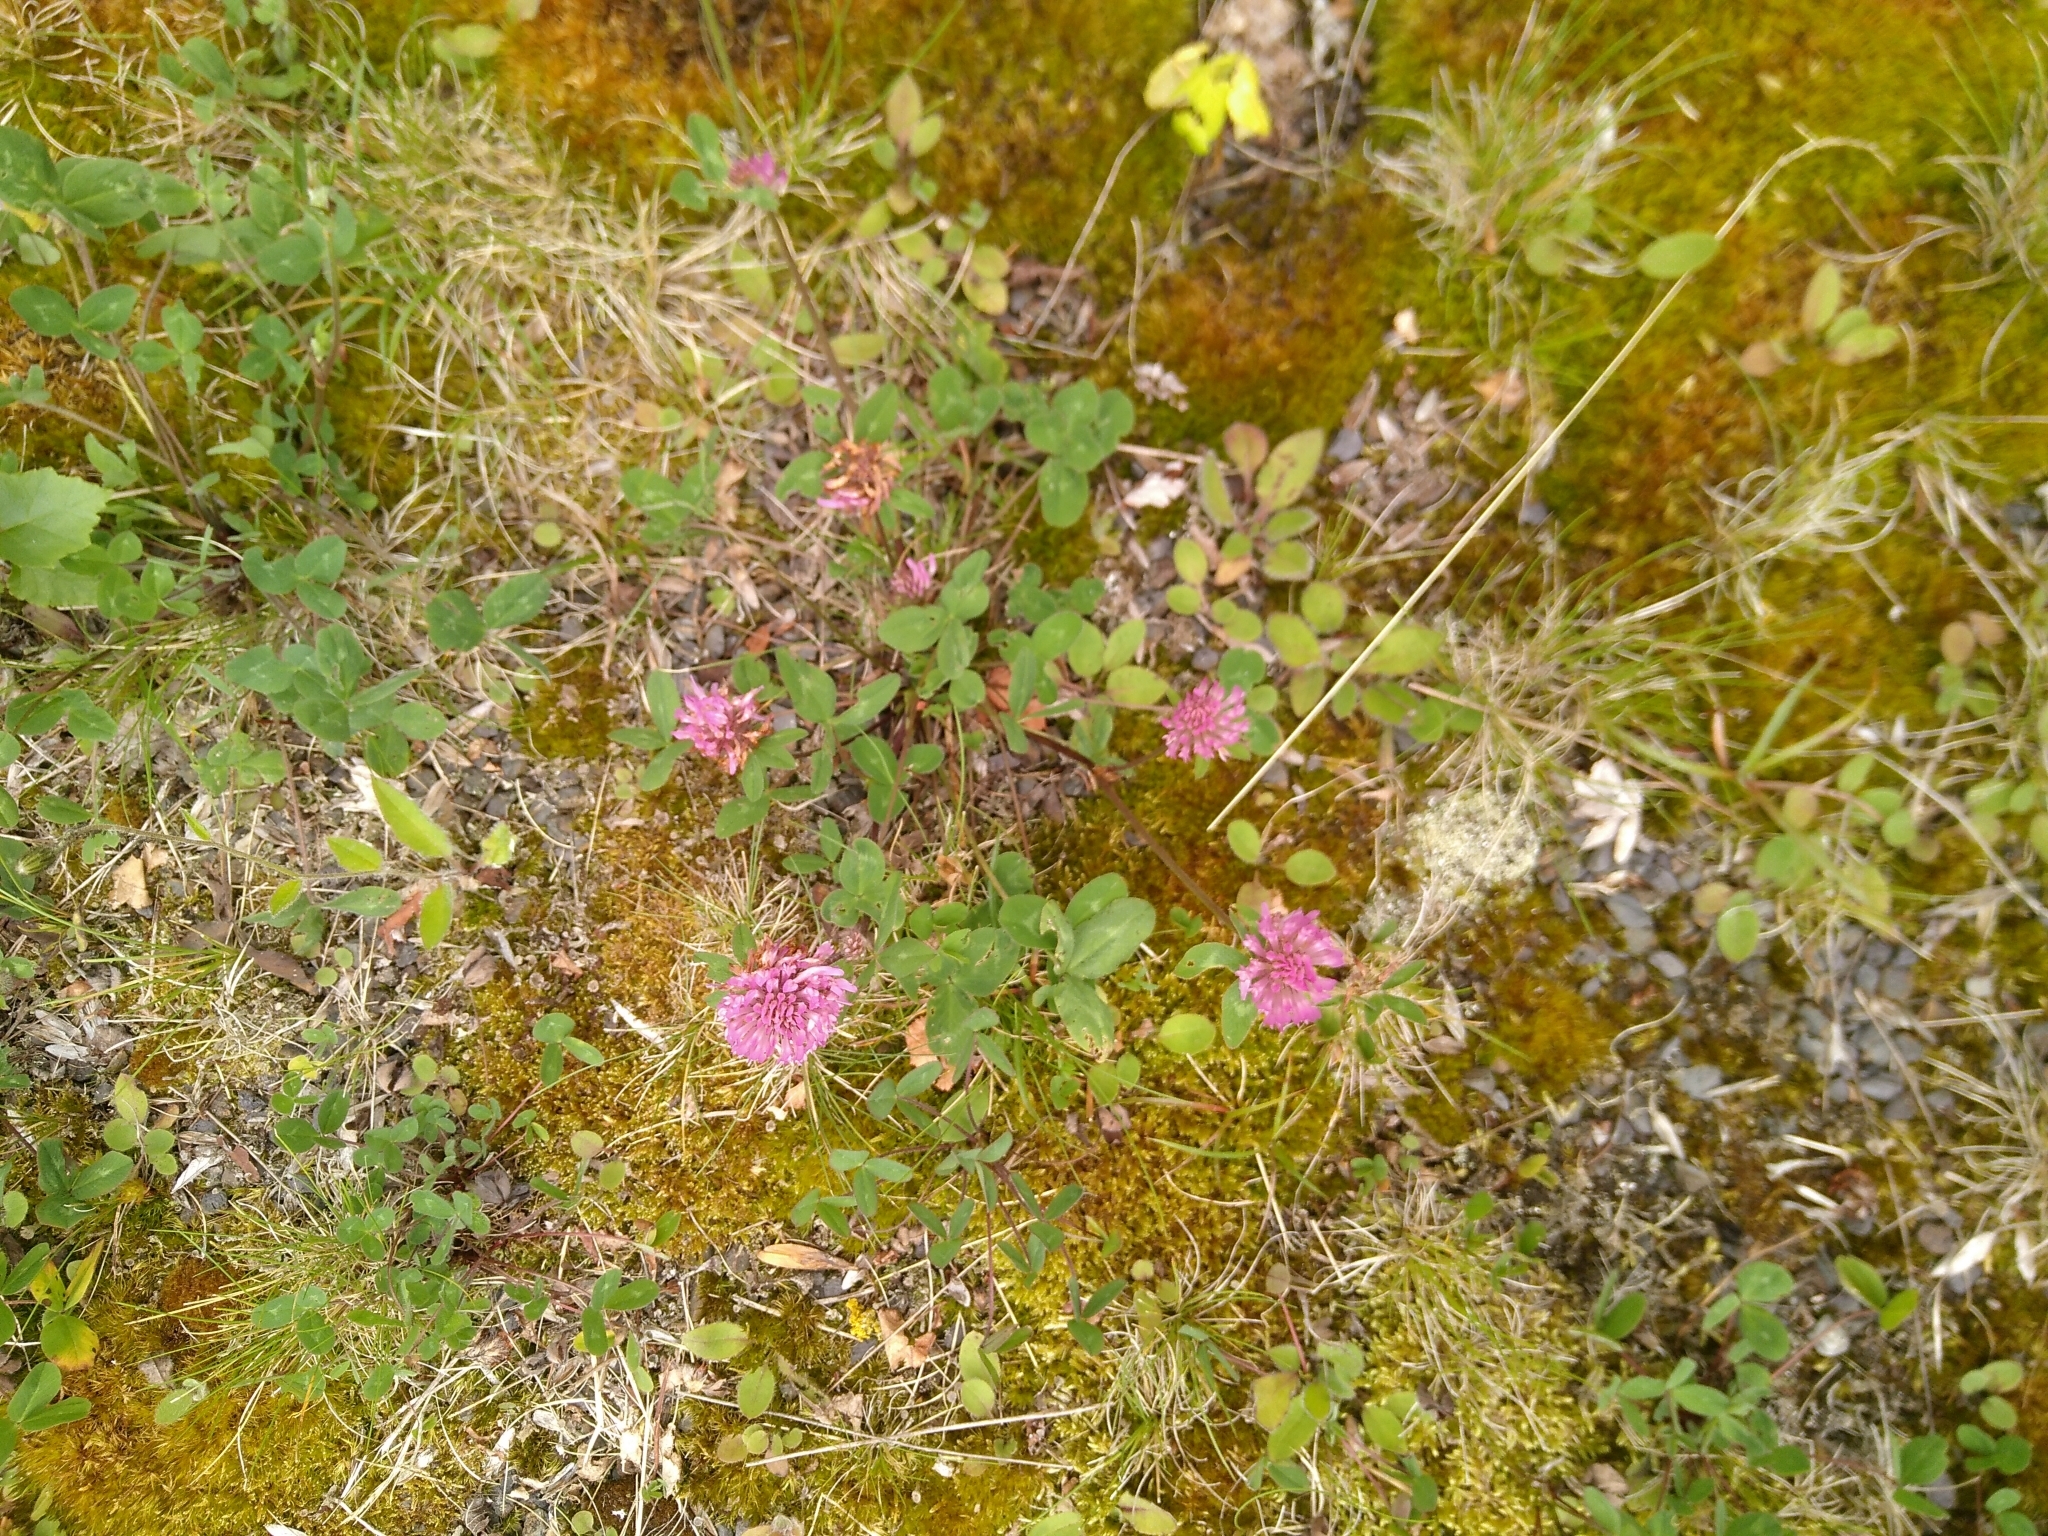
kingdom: Plantae
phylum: Tracheophyta
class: Magnoliopsida
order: Fabales
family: Fabaceae
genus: Trifolium
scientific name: Trifolium pratense
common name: Red clover
